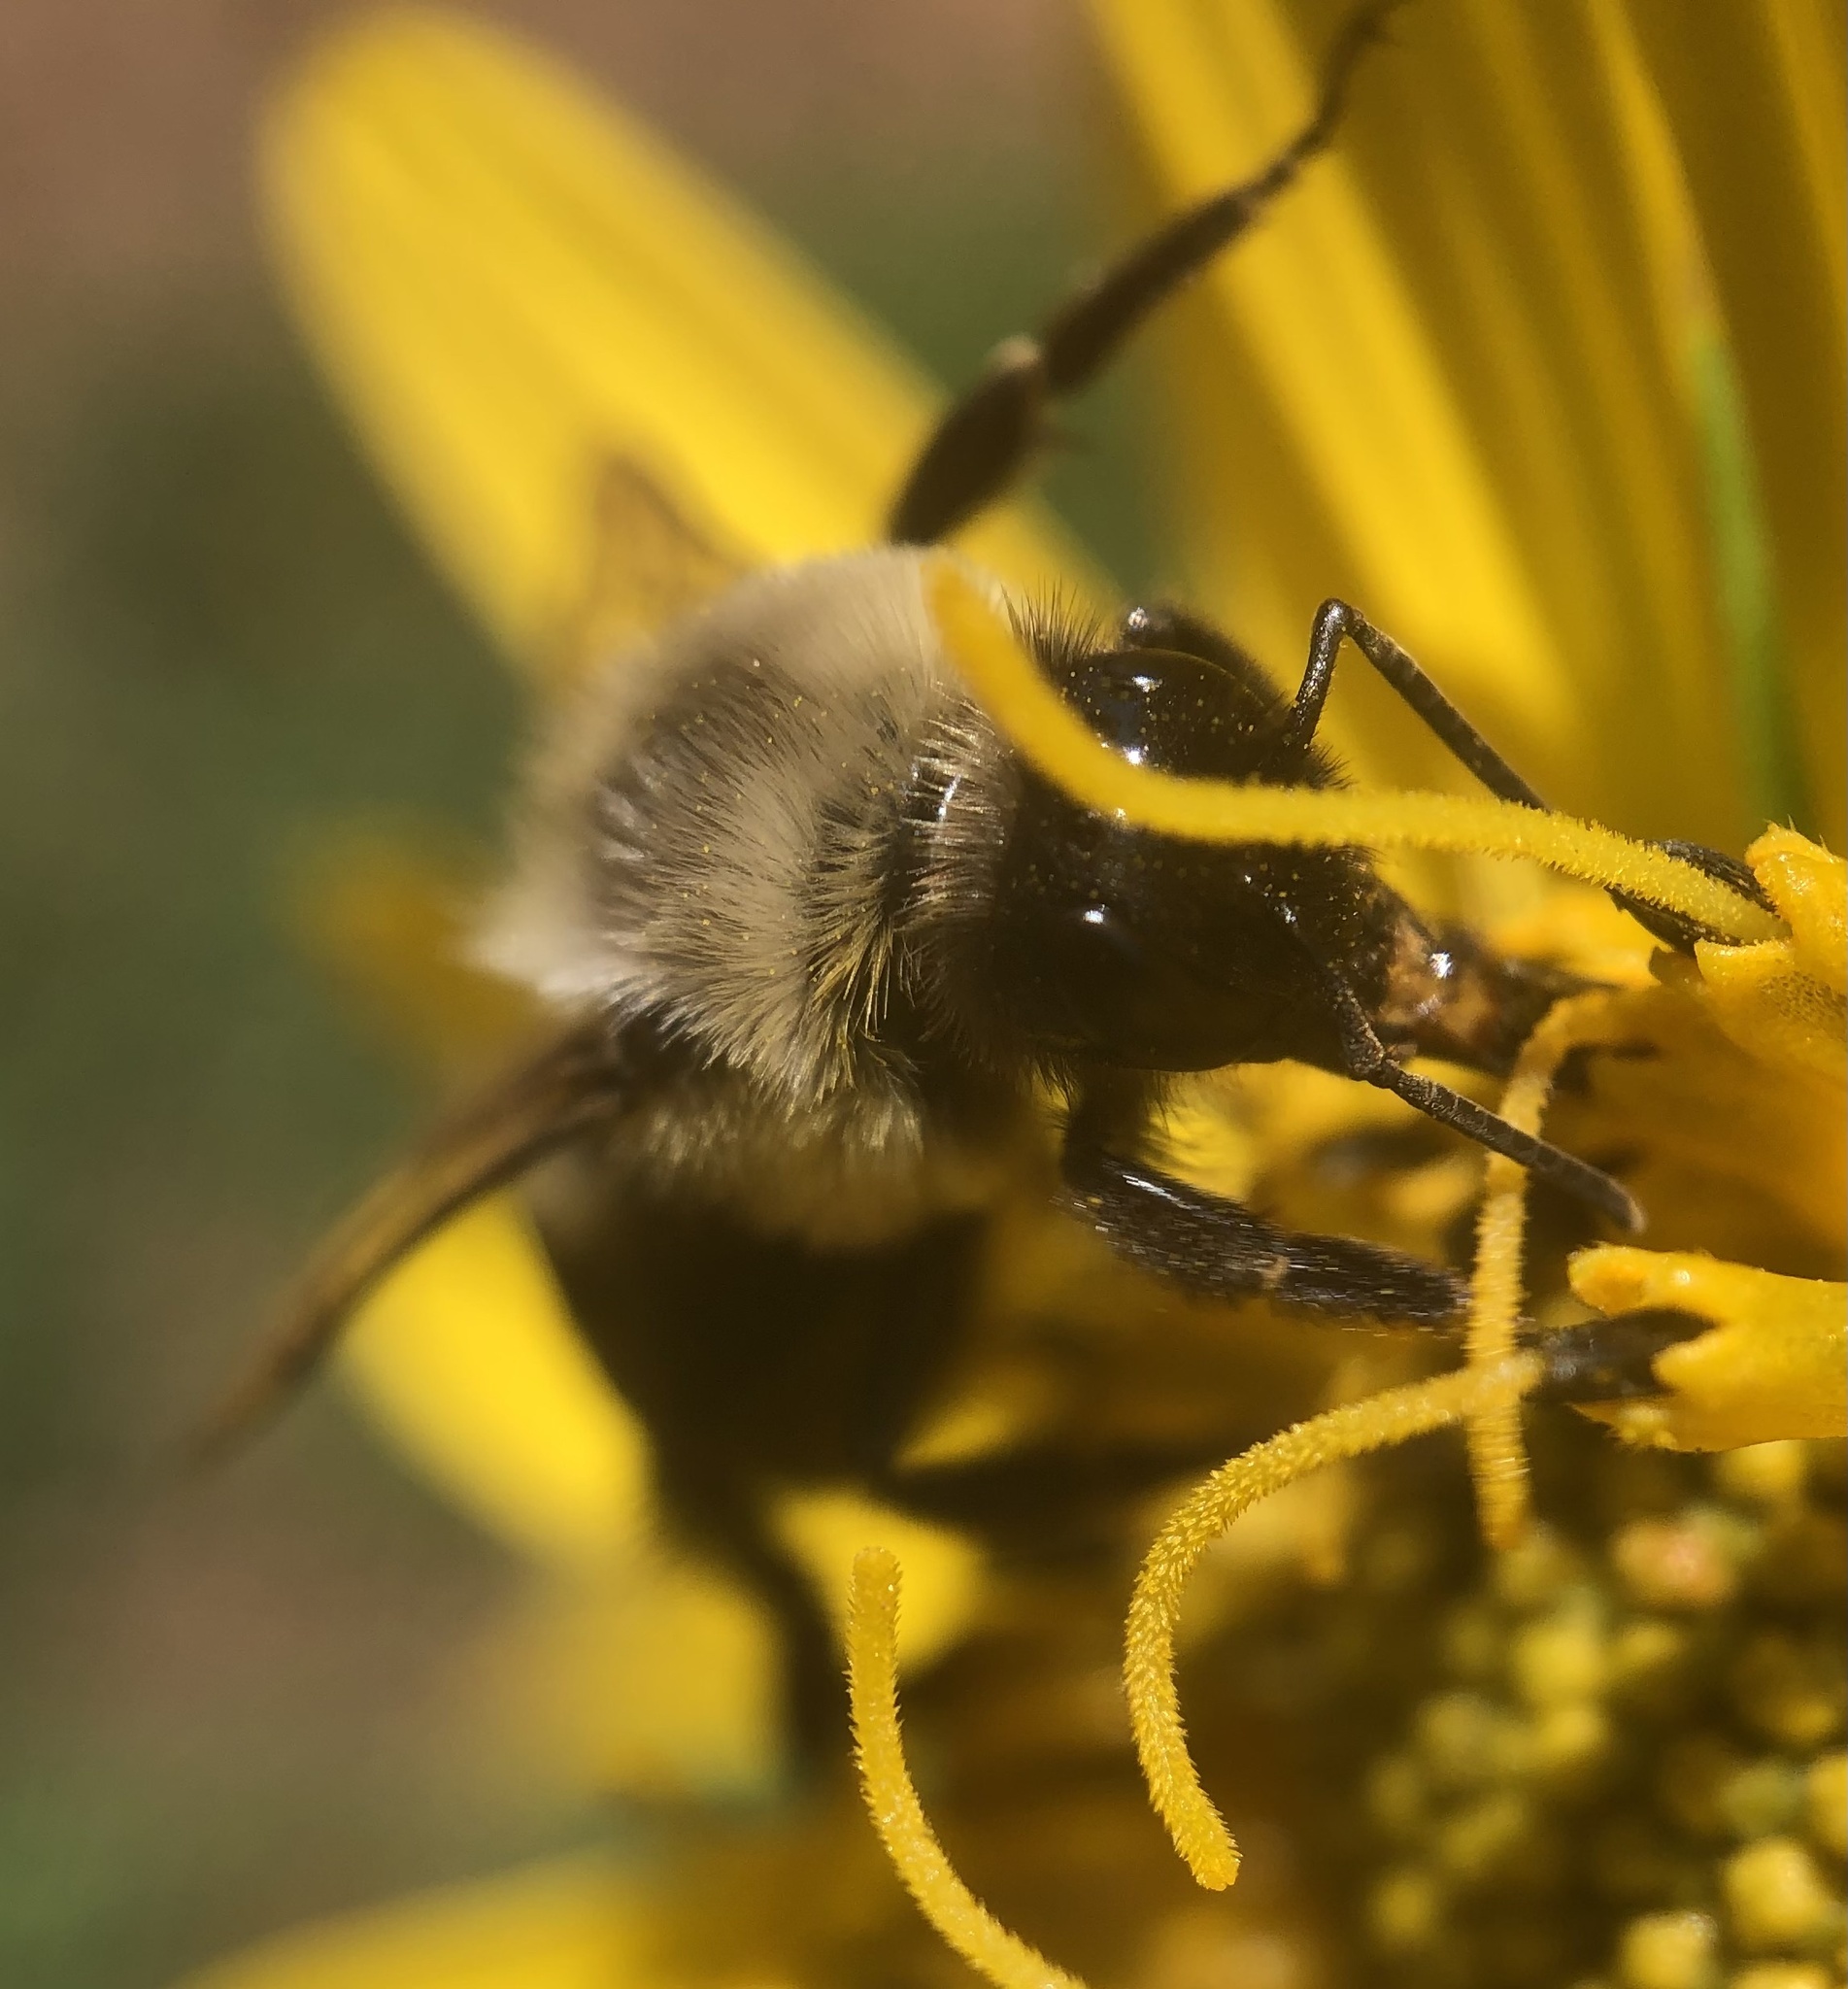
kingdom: Animalia
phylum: Arthropoda
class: Insecta
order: Hymenoptera
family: Apidae
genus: Bombus
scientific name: Bombus impatiens
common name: Common eastern bumble bee
